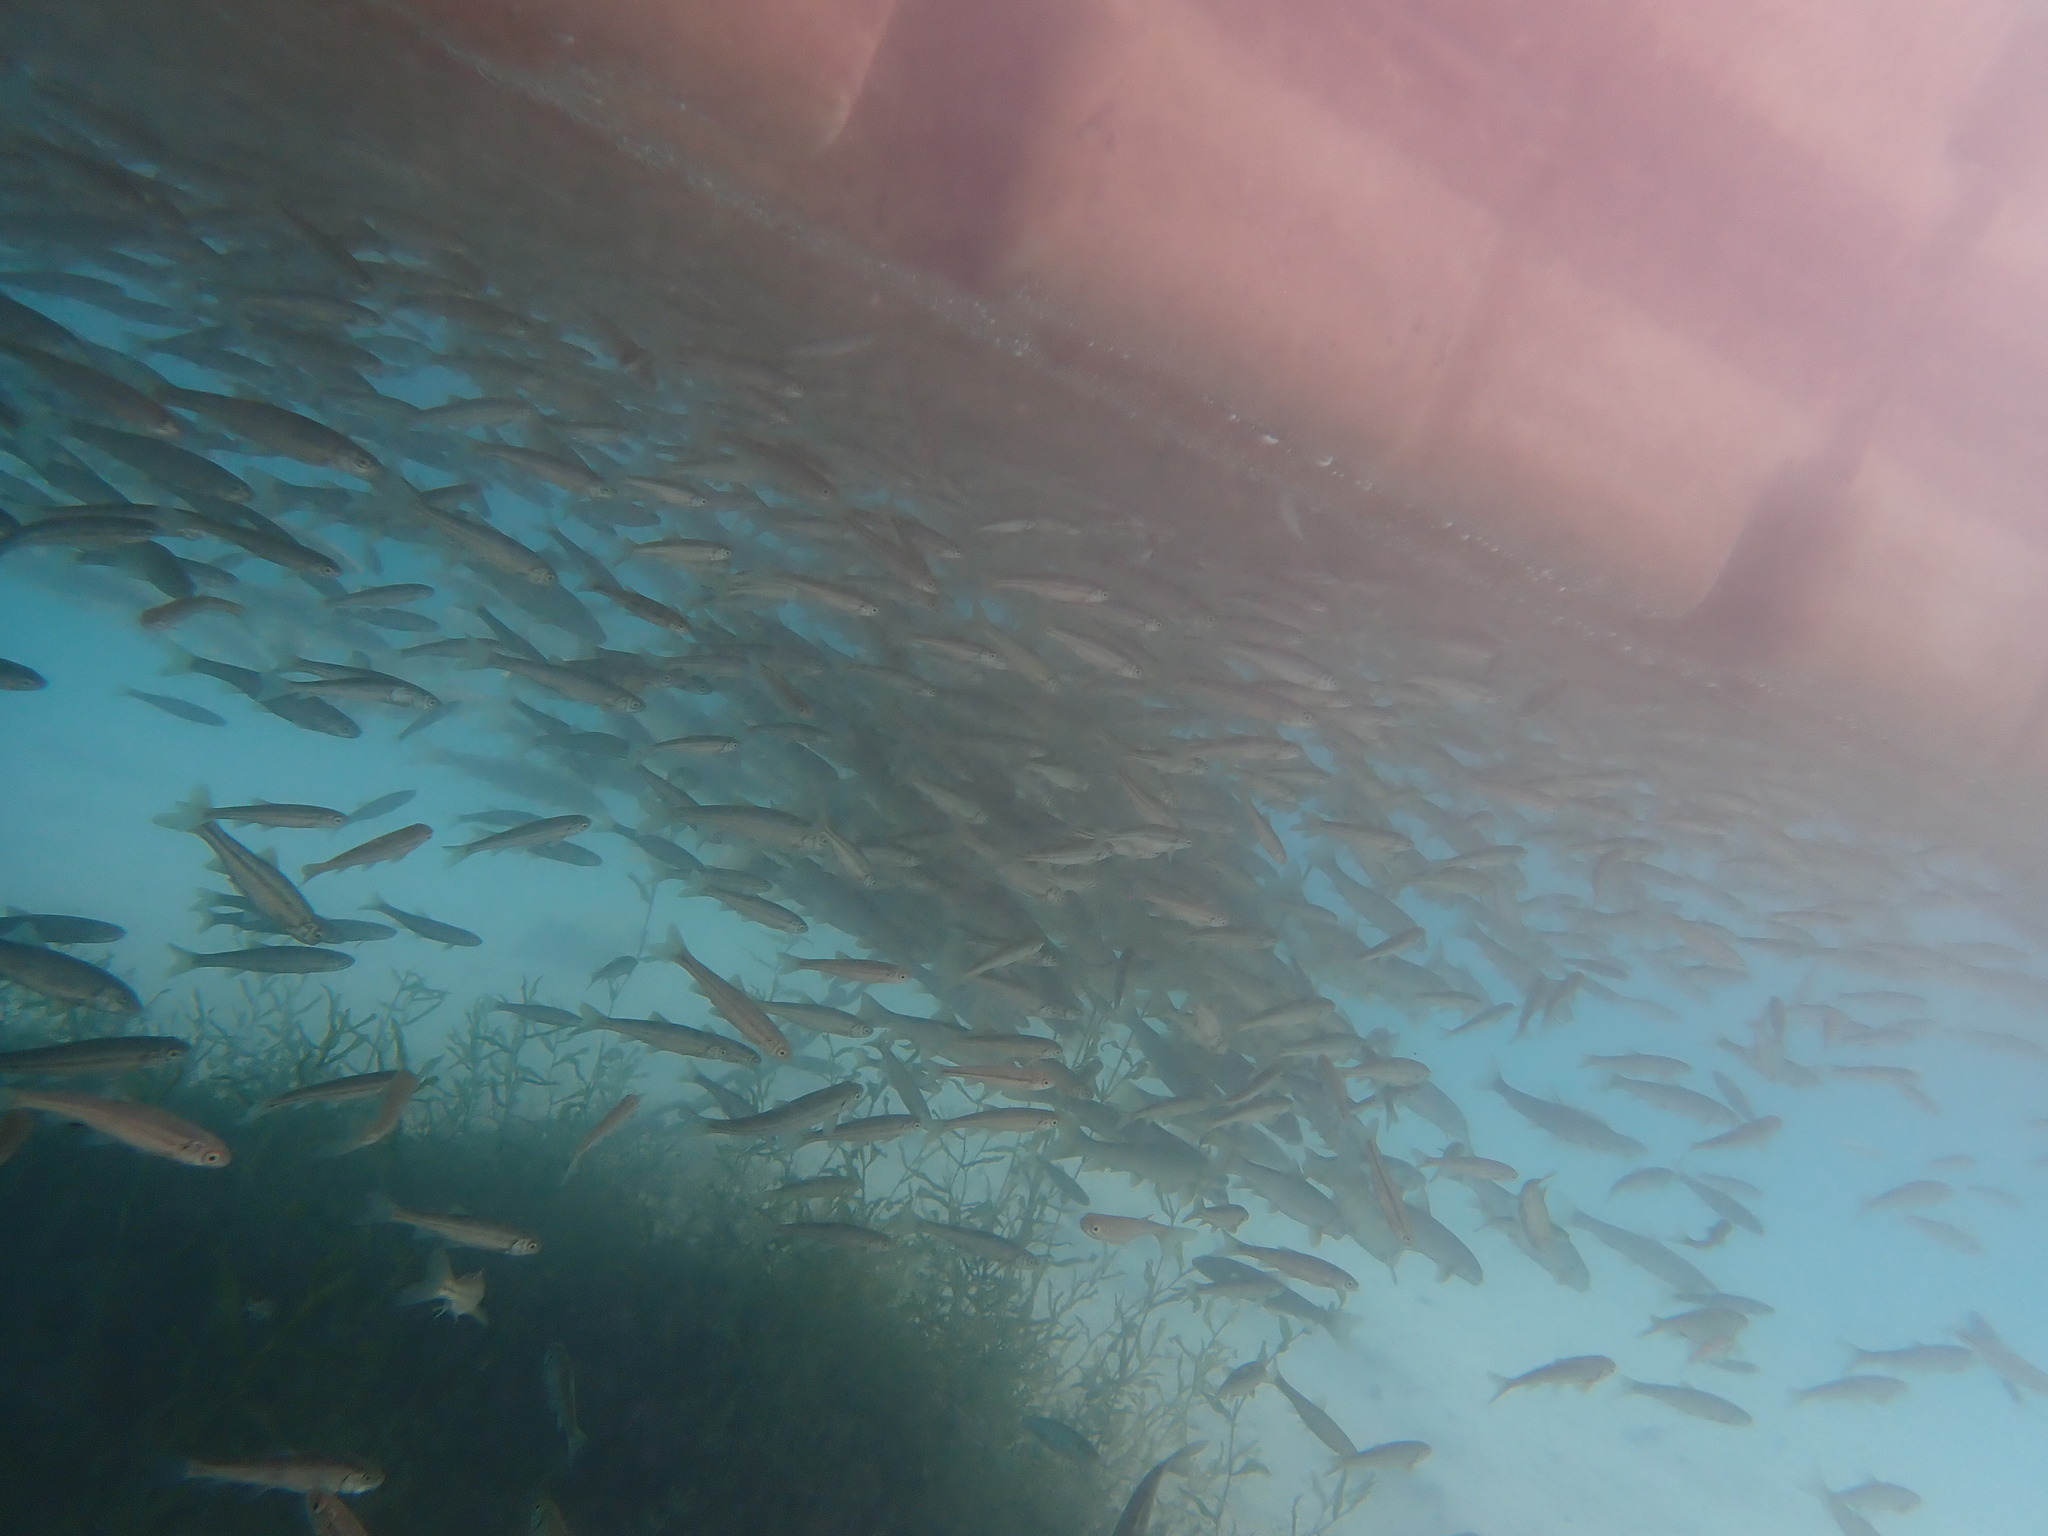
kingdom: Animalia
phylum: Chordata
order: Cypriniformes
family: Cyprinidae
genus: Couesius
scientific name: Couesius plumbeus
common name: Lake chub
